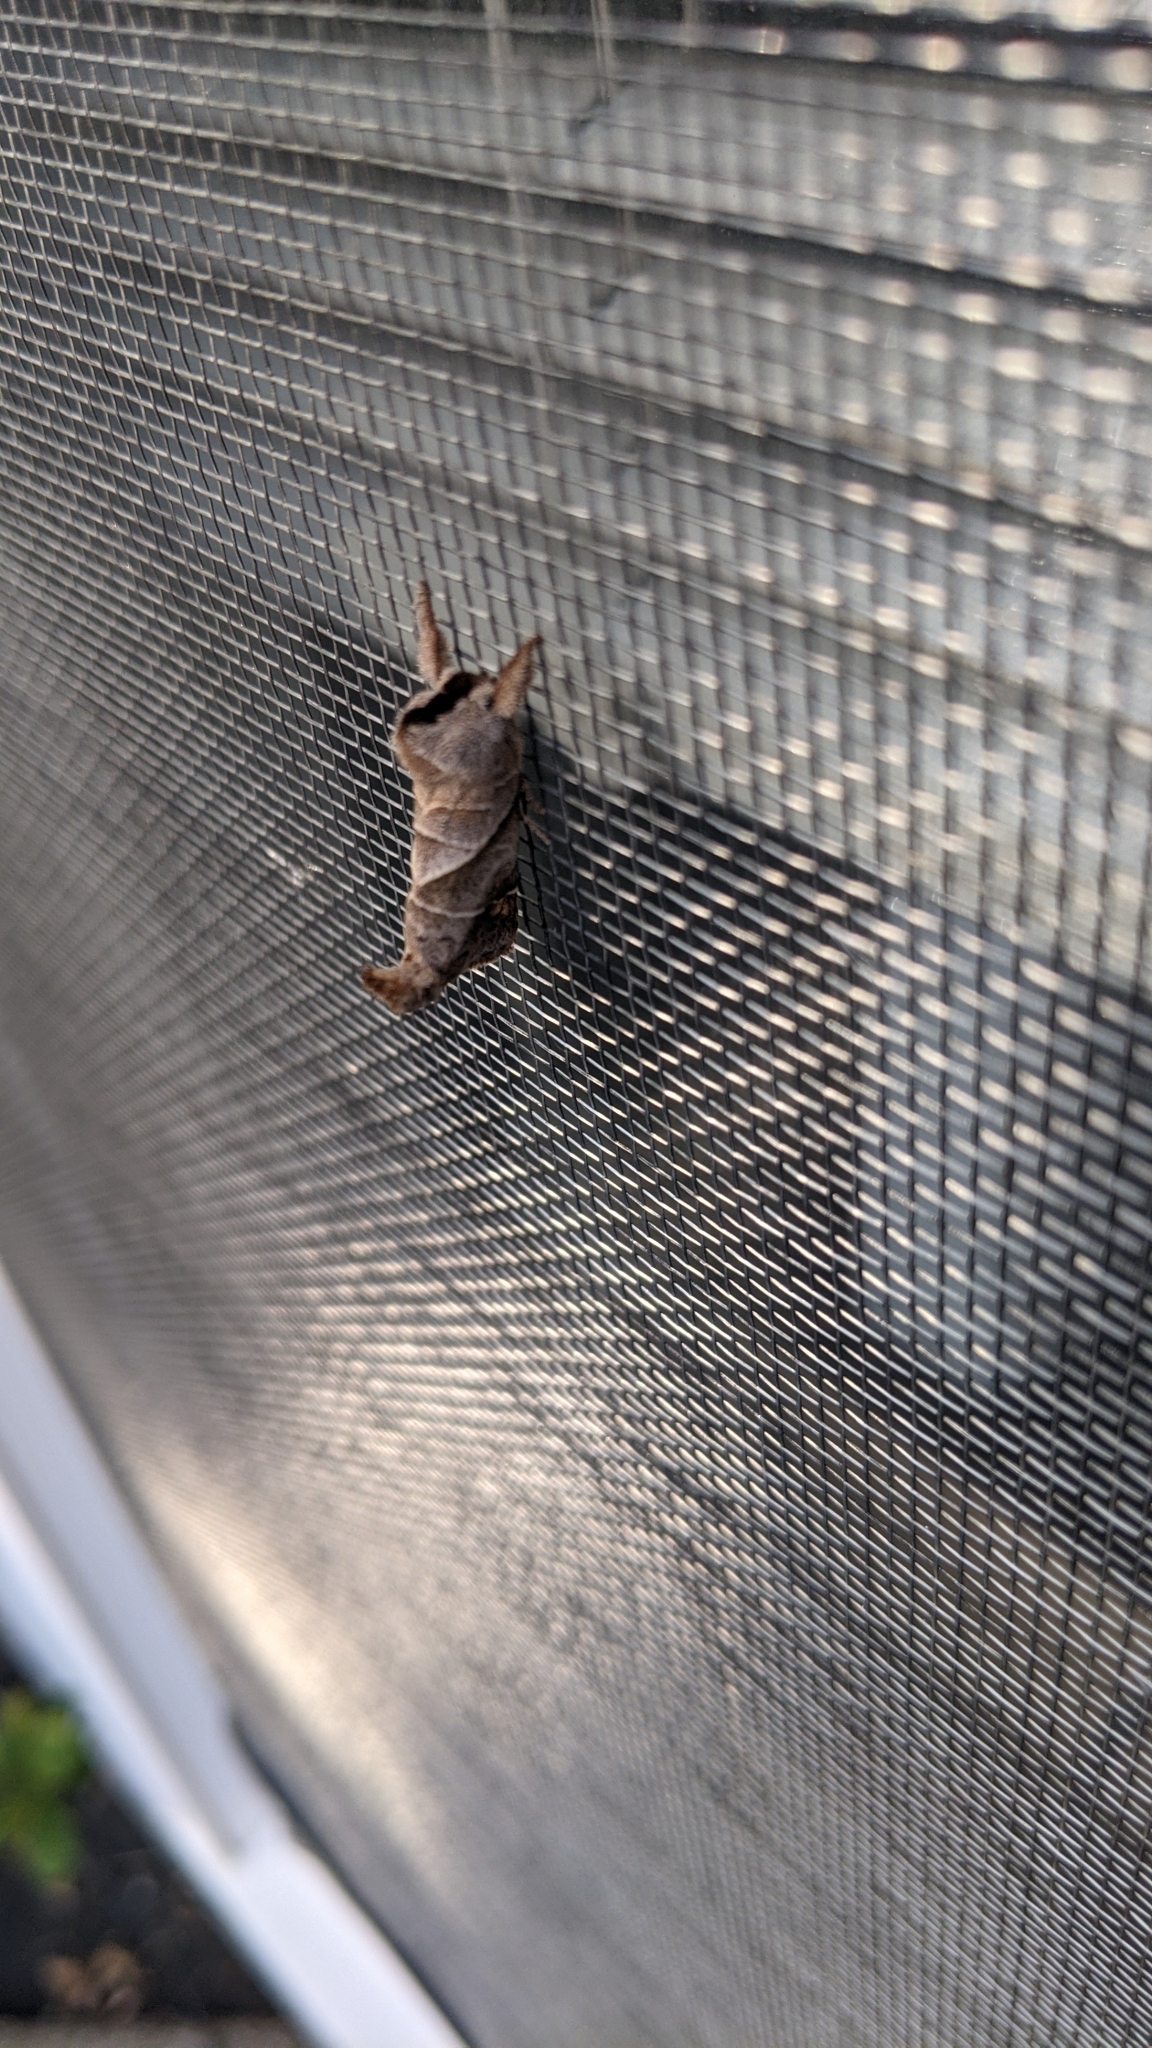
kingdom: Animalia
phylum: Arthropoda
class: Insecta
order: Lepidoptera
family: Notodontidae
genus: Clostera
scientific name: Clostera inclusa
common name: Angle-lined prominent
